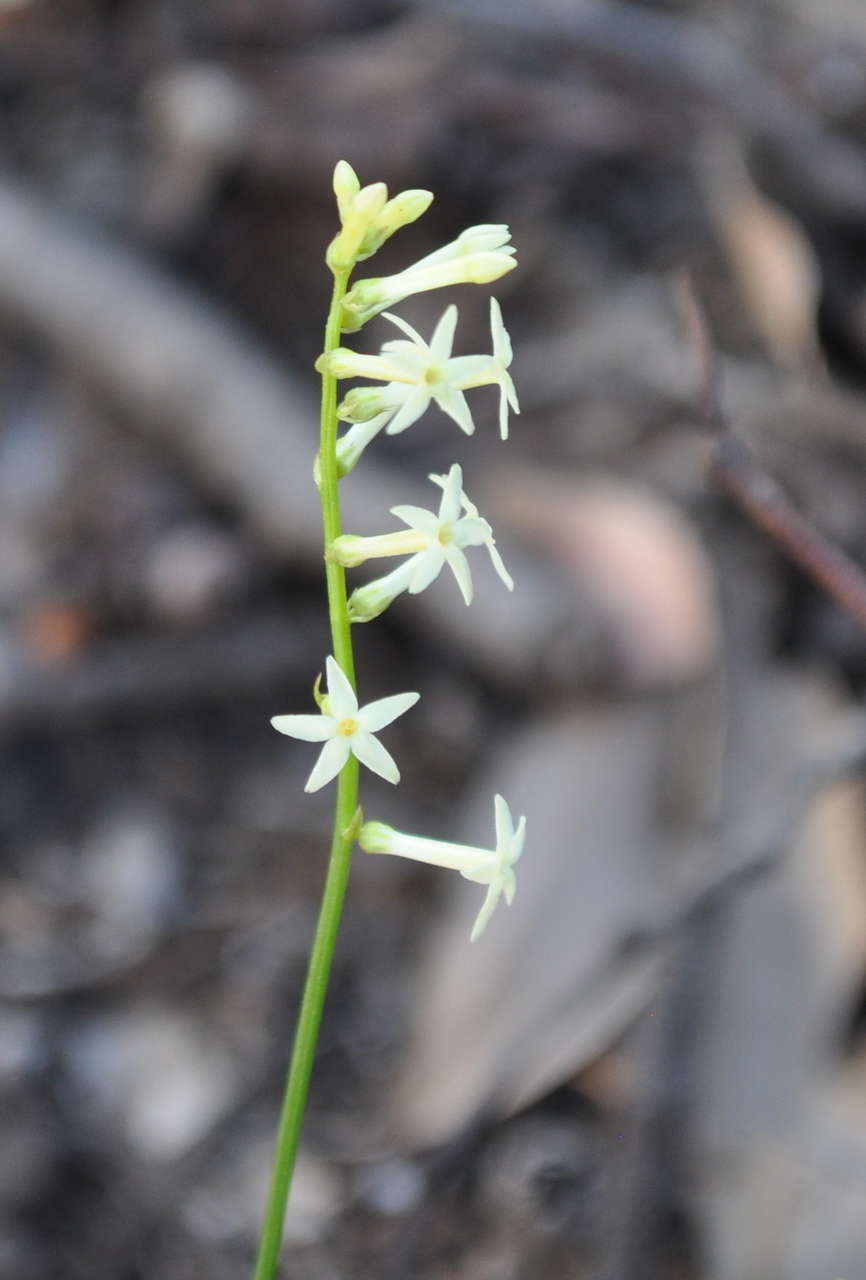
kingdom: Plantae
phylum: Tracheophyta
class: Magnoliopsida
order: Celastrales
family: Celastraceae
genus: Stackhousia
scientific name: Stackhousia monogyna
